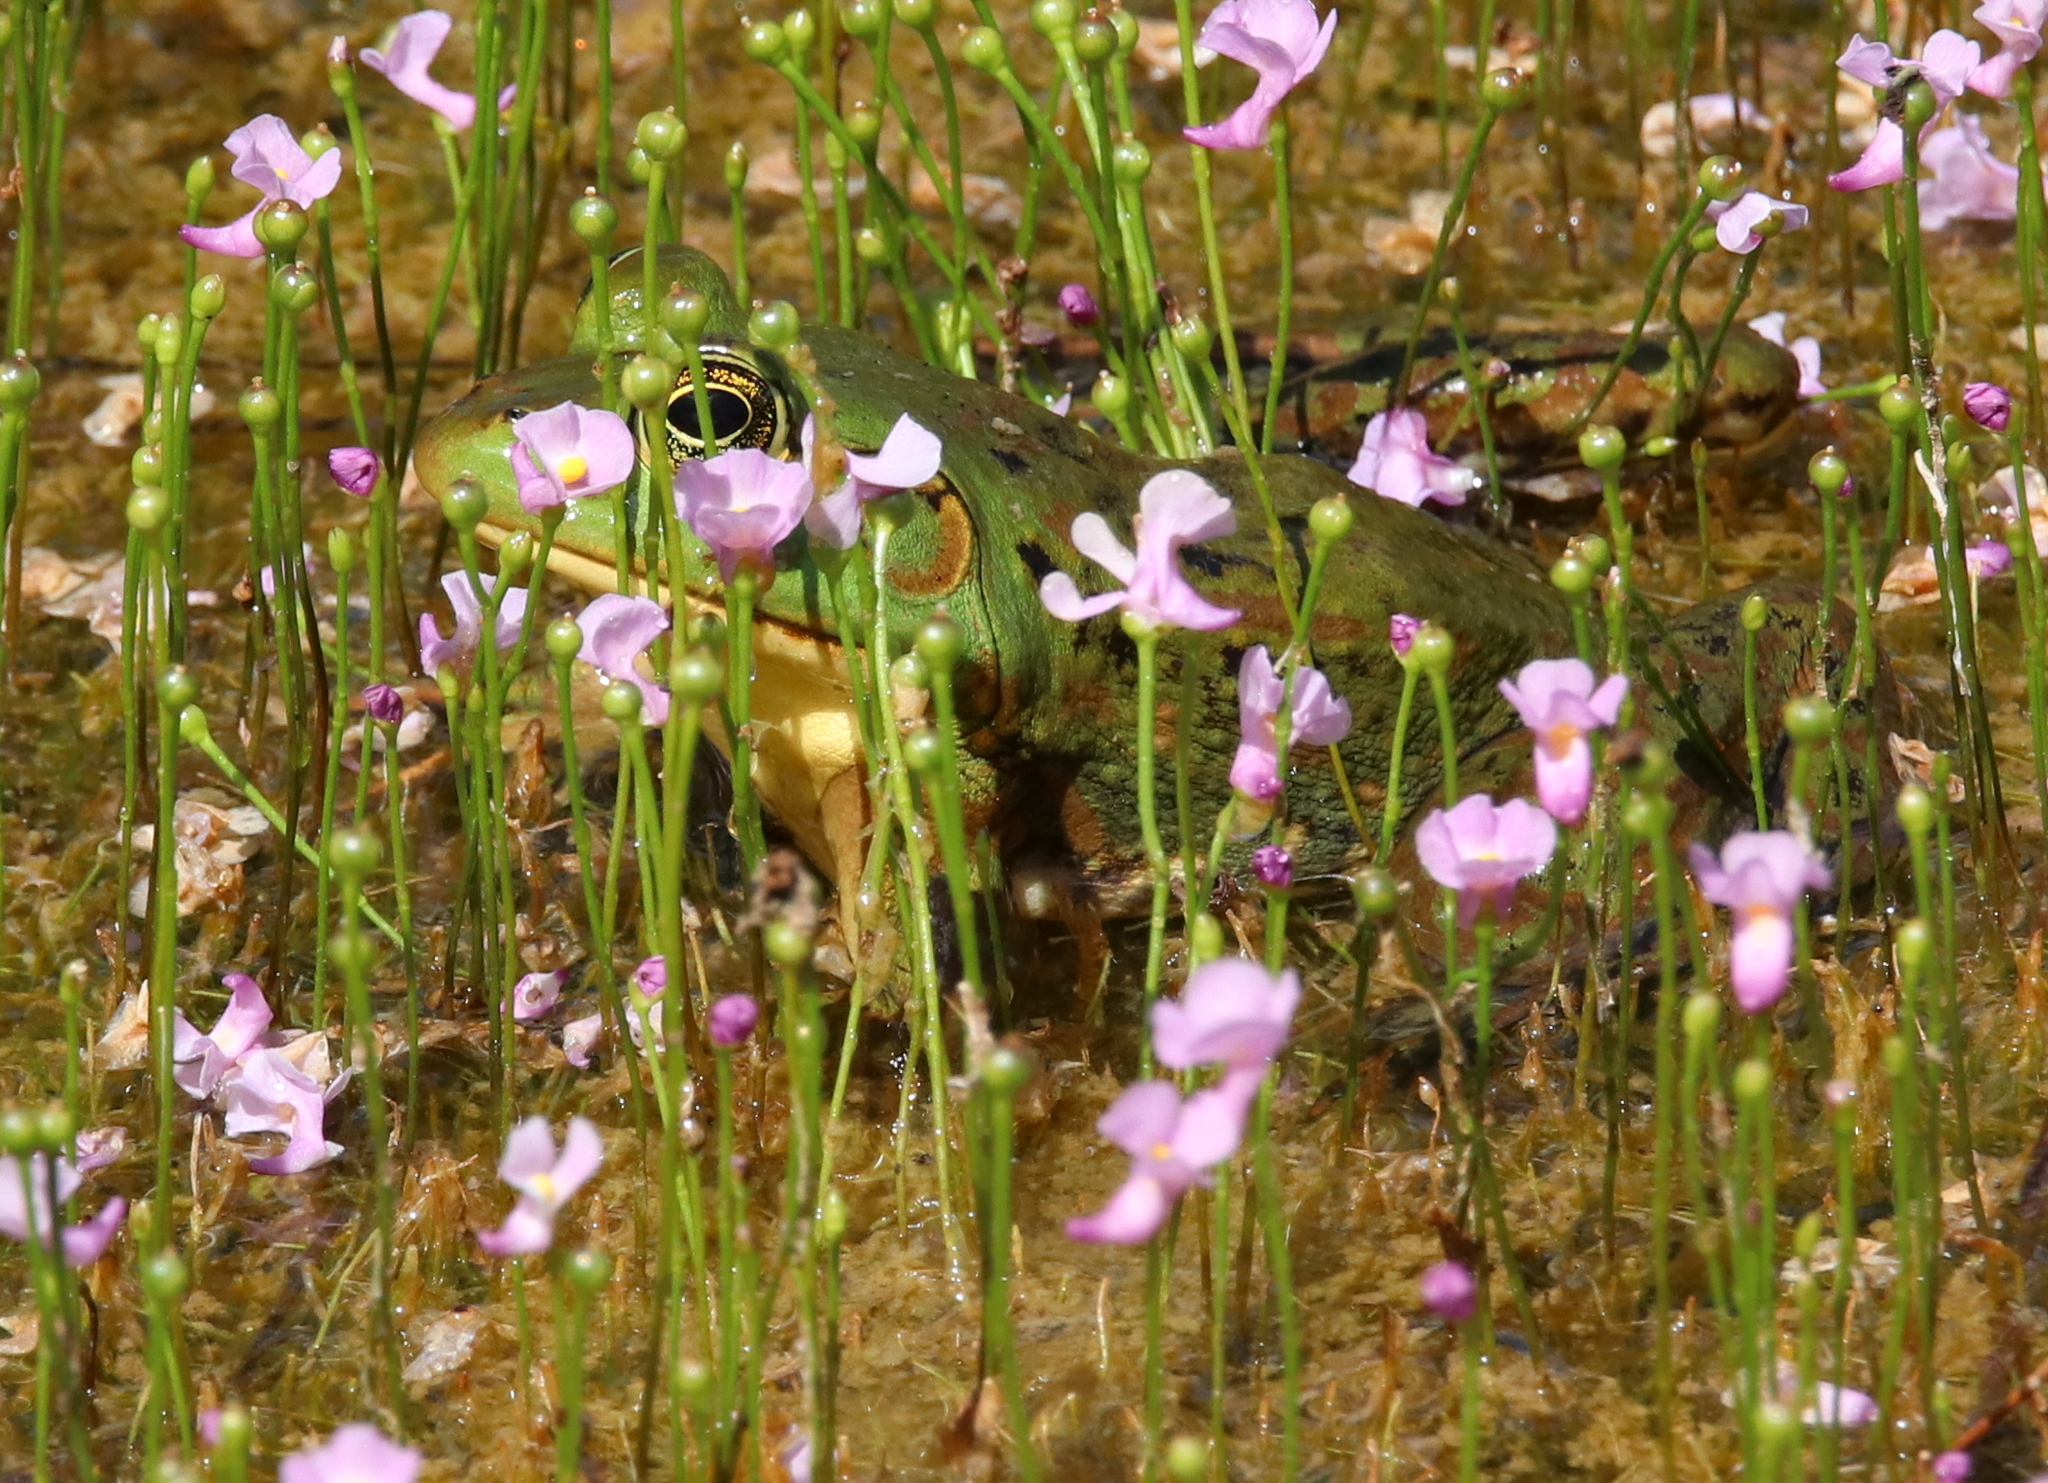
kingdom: Animalia
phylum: Chordata
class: Amphibia
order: Anura
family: Ranidae
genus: Lithobates
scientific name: Lithobates catesbeianus
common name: American bullfrog
